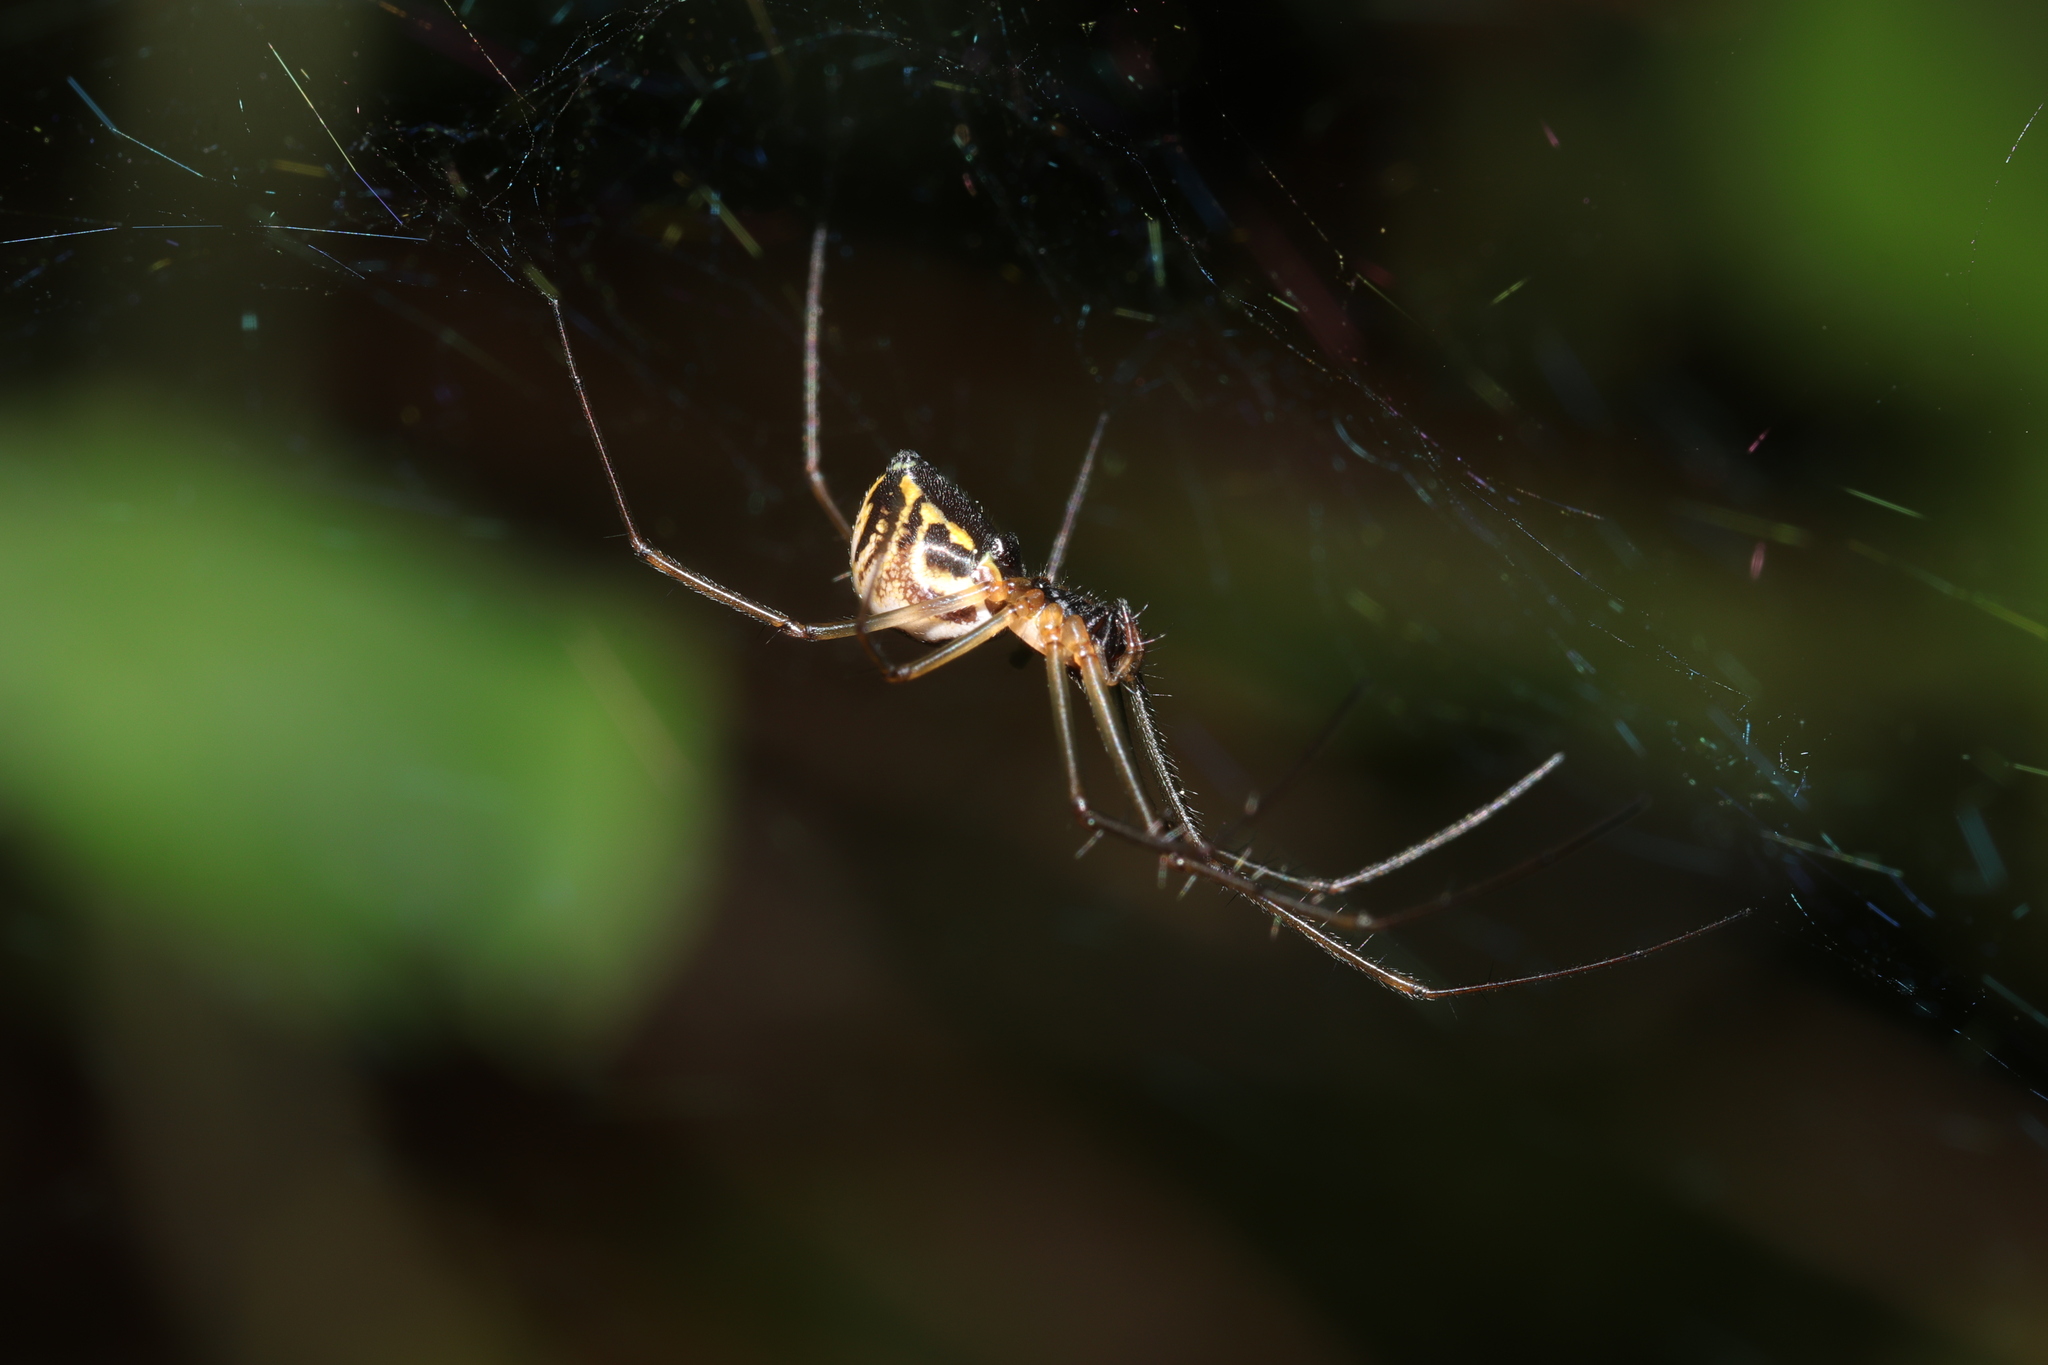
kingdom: Animalia
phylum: Arthropoda
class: Arachnida
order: Araneae
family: Linyphiidae
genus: Neriene
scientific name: Neriene radiata
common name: Filmy dome spider
